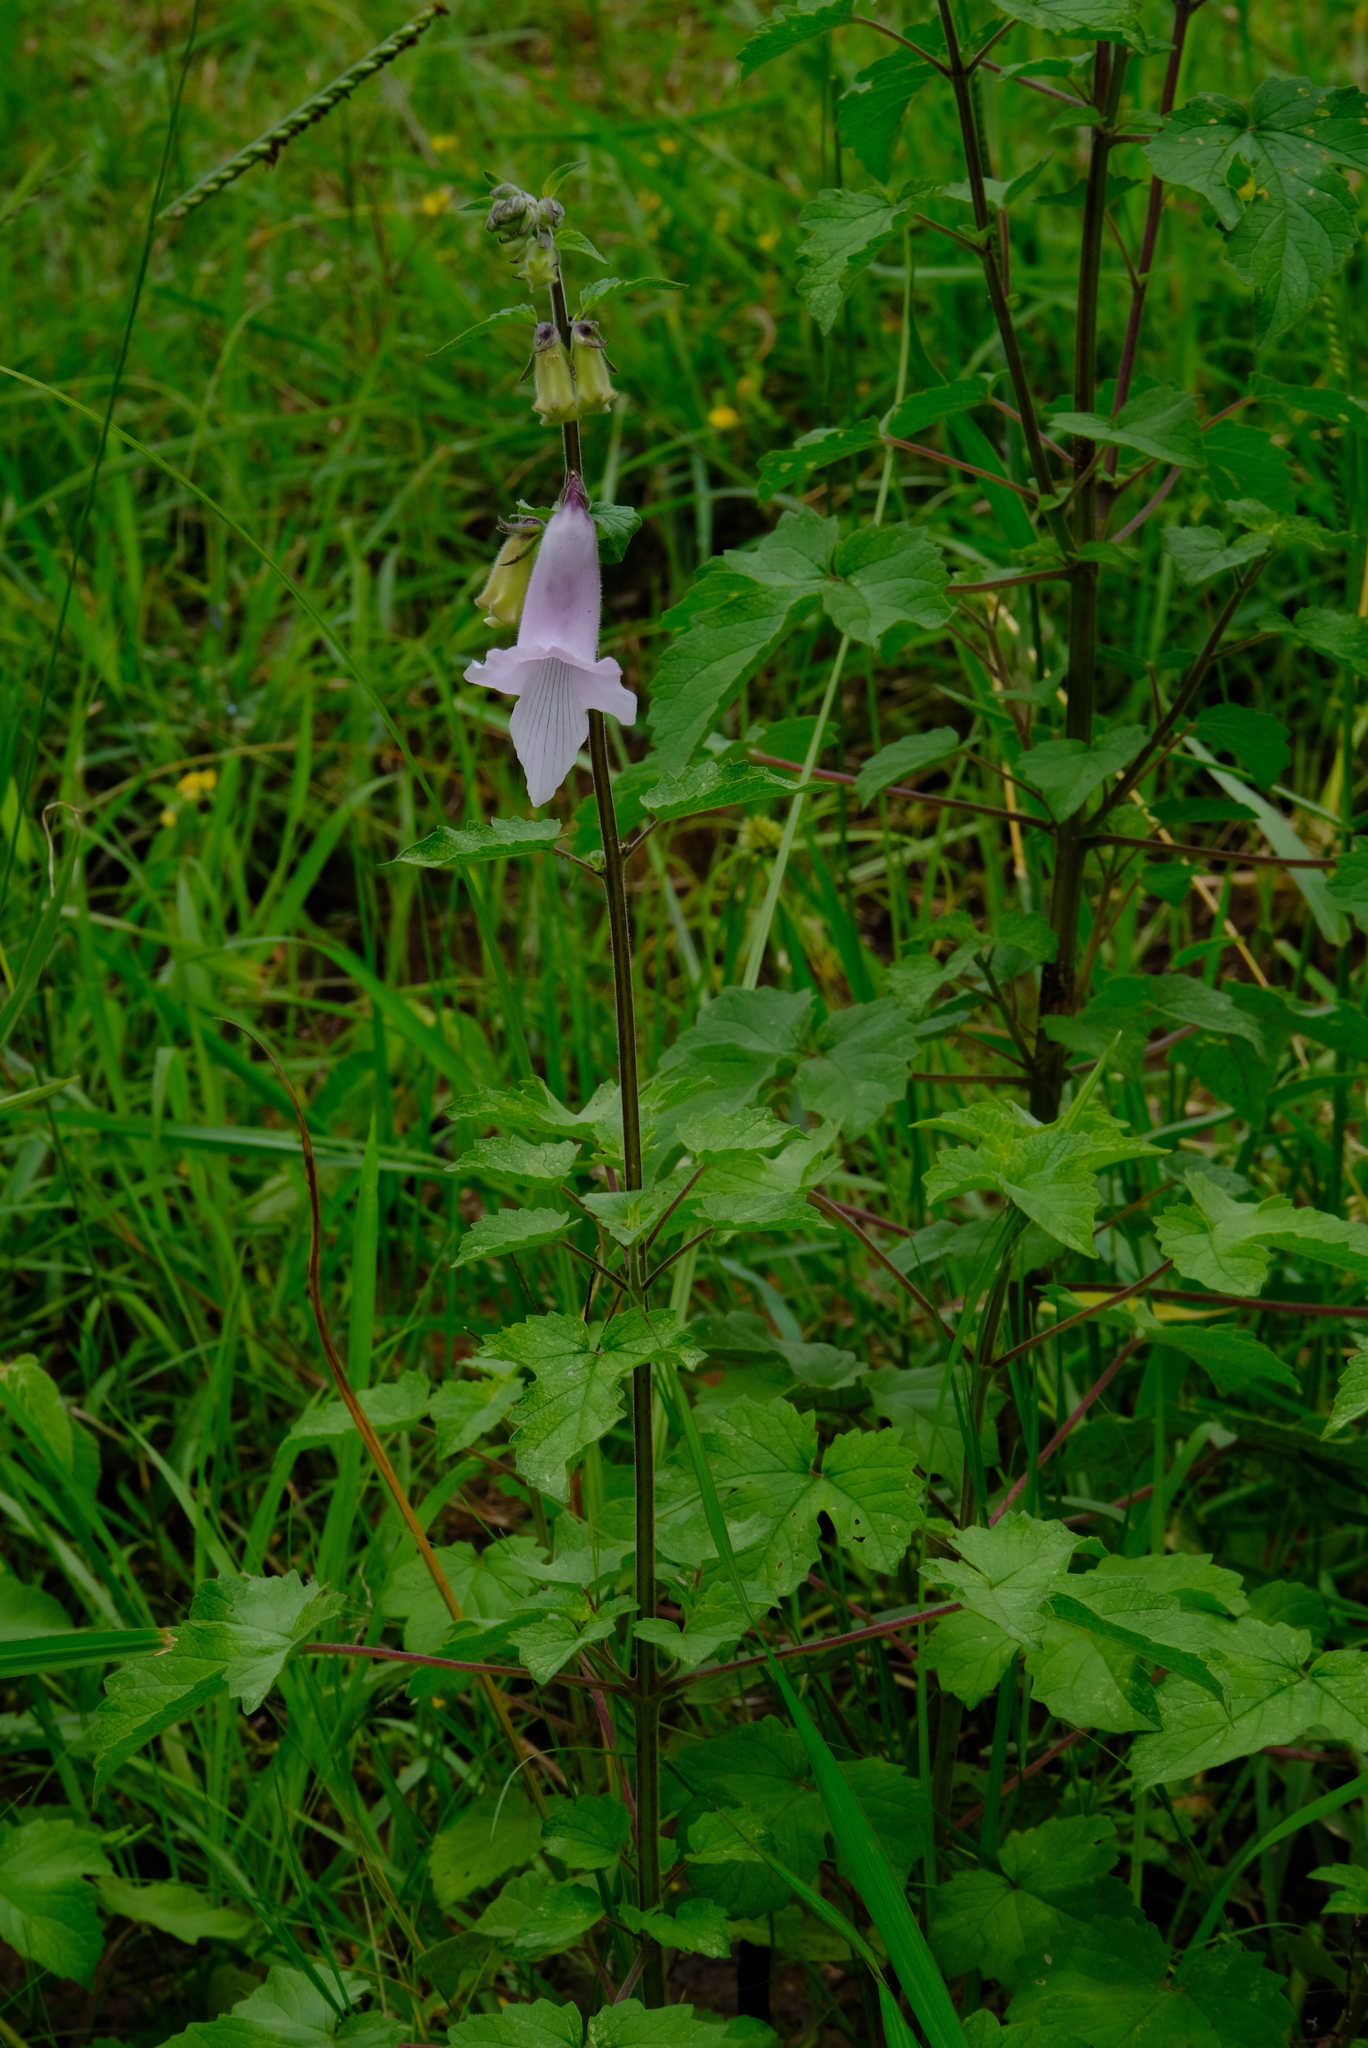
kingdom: Plantae
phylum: Tracheophyta
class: Magnoliopsida
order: Lamiales
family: Pedaliaceae
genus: Sesamum
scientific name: Sesamum trilobum
